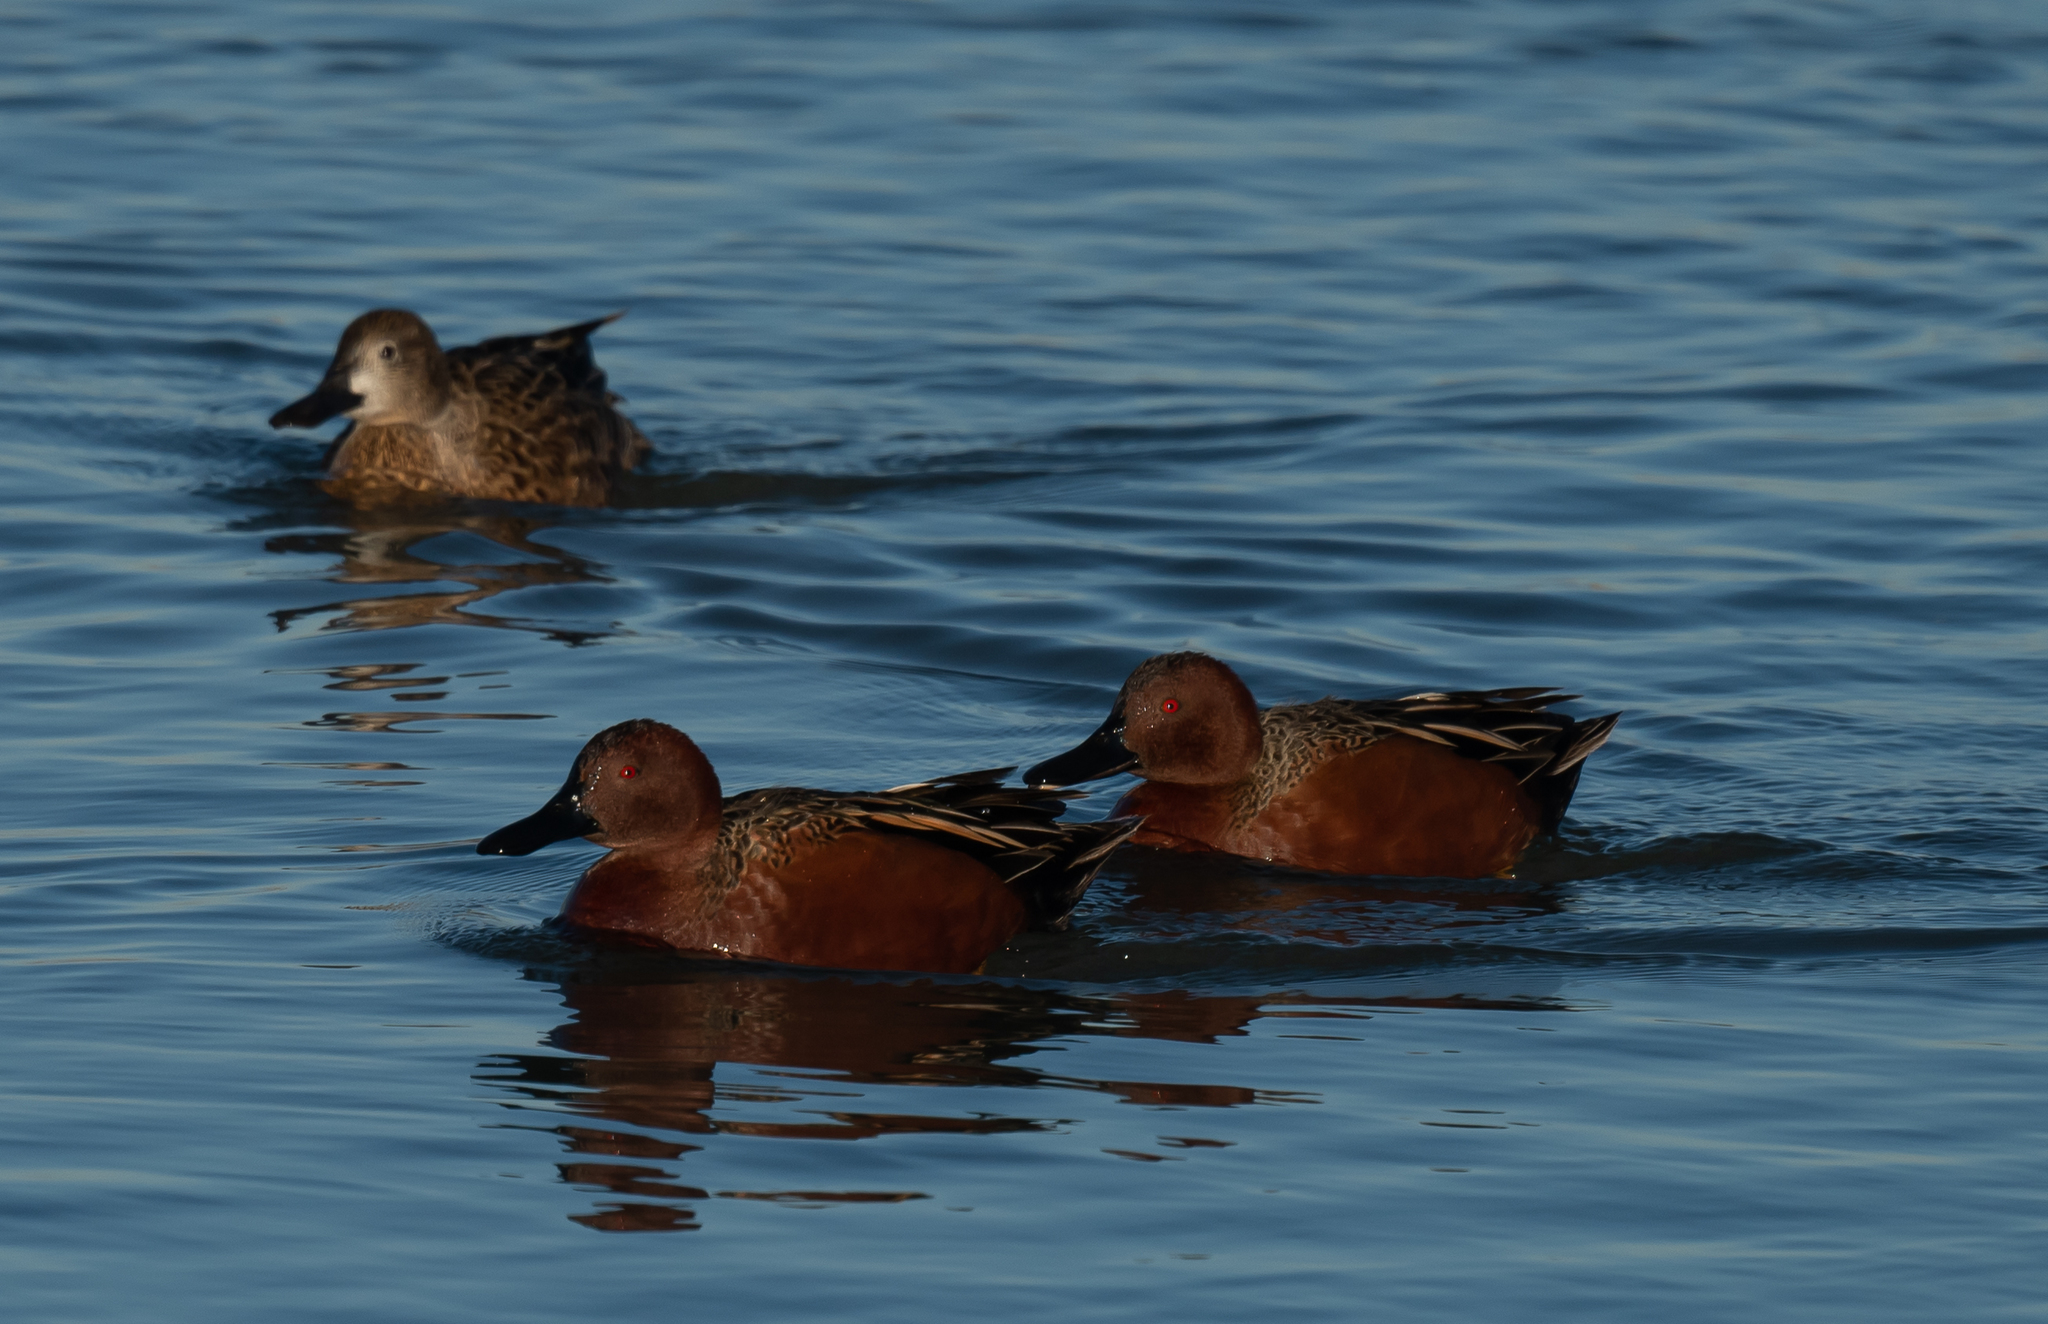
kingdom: Animalia
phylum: Chordata
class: Aves
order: Anseriformes
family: Anatidae
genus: Spatula
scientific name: Spatula cyanoptera
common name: Cinnamon teal
